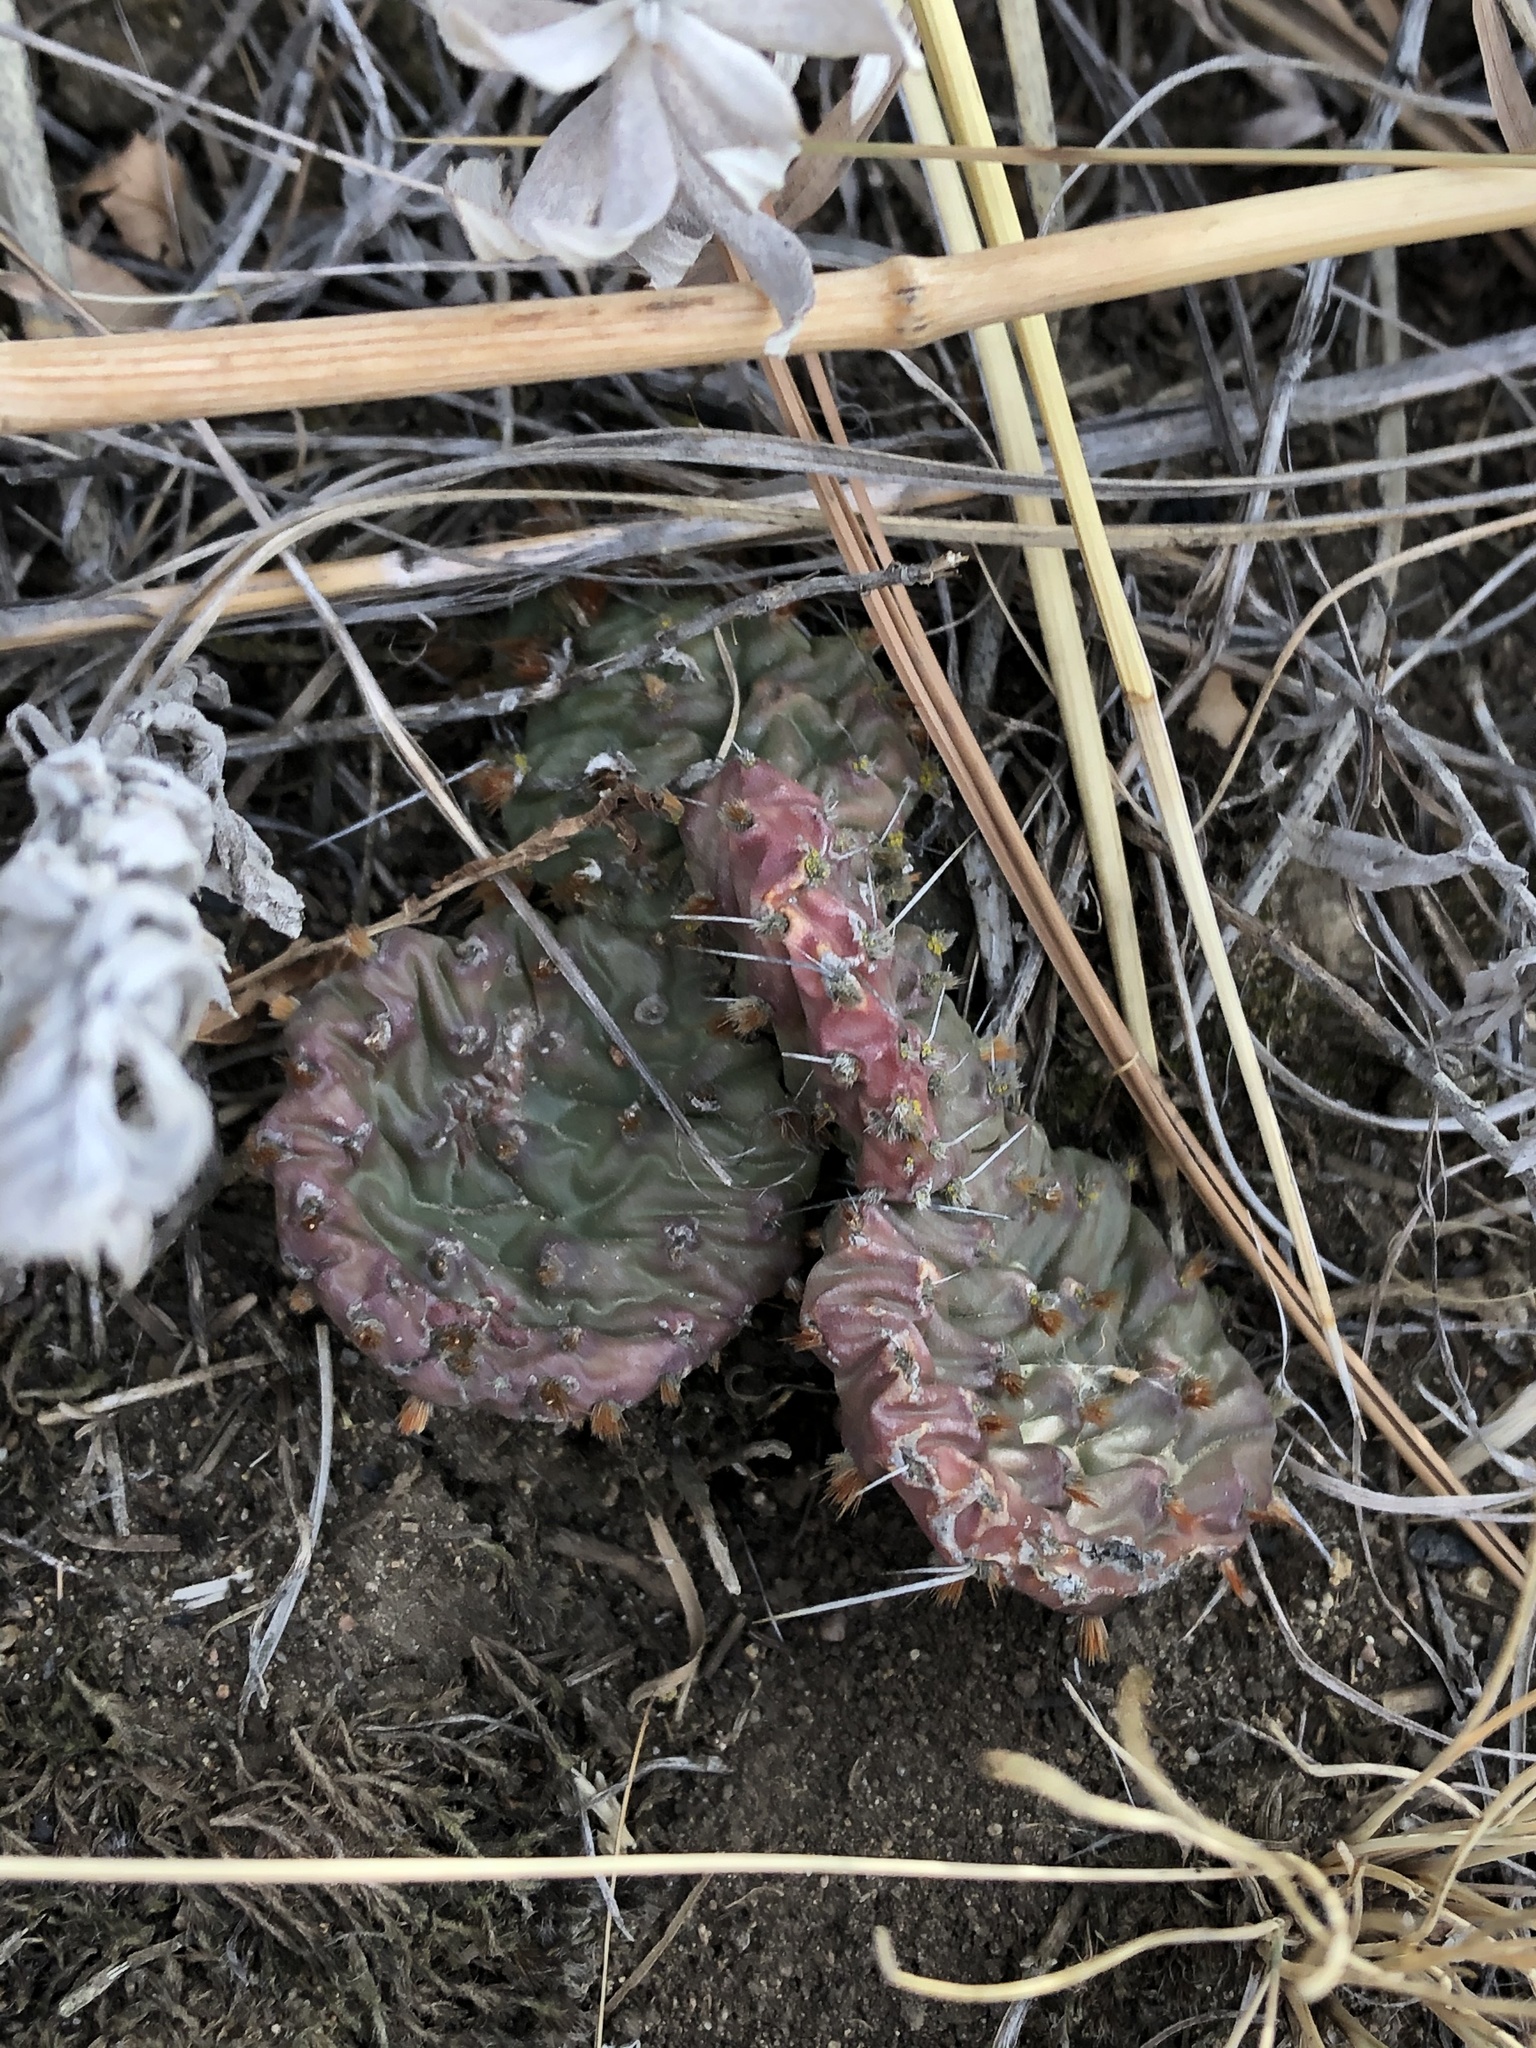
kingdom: Plantae
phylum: Tracheophyta
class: Magnoliopsida
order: Caryophyllales
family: Cactaceae
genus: Opuntia
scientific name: Opuntia macrorhiza
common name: Grassland pricklypear
